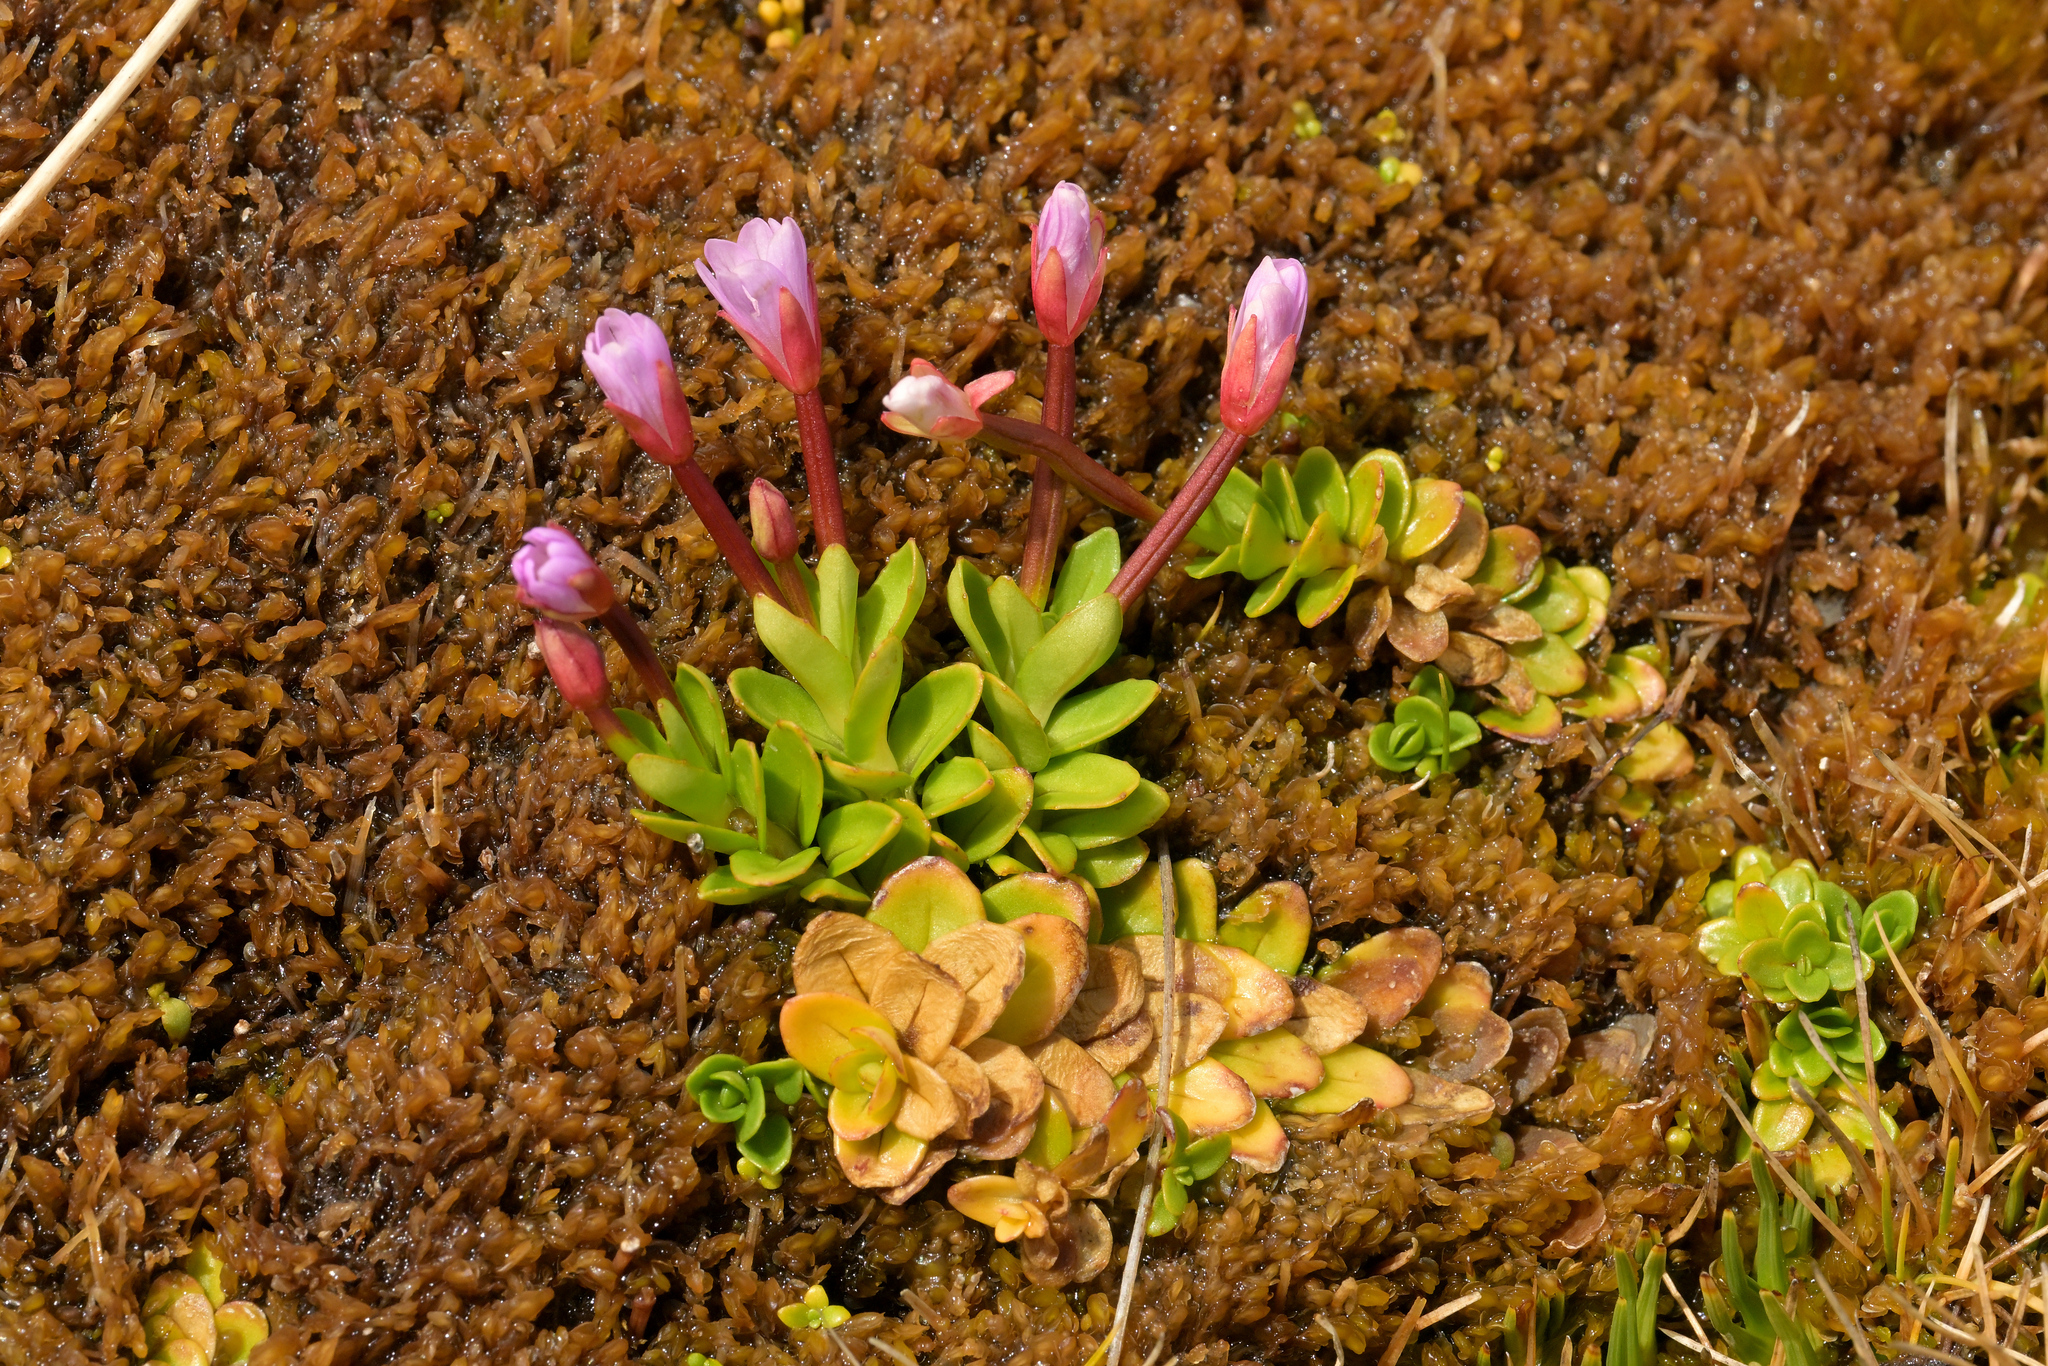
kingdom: Plantae
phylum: Tracheophyta
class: Magnoliopsida
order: Myrtales
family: Onagraceae
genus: Epilobium
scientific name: Epilobium confertifolium
